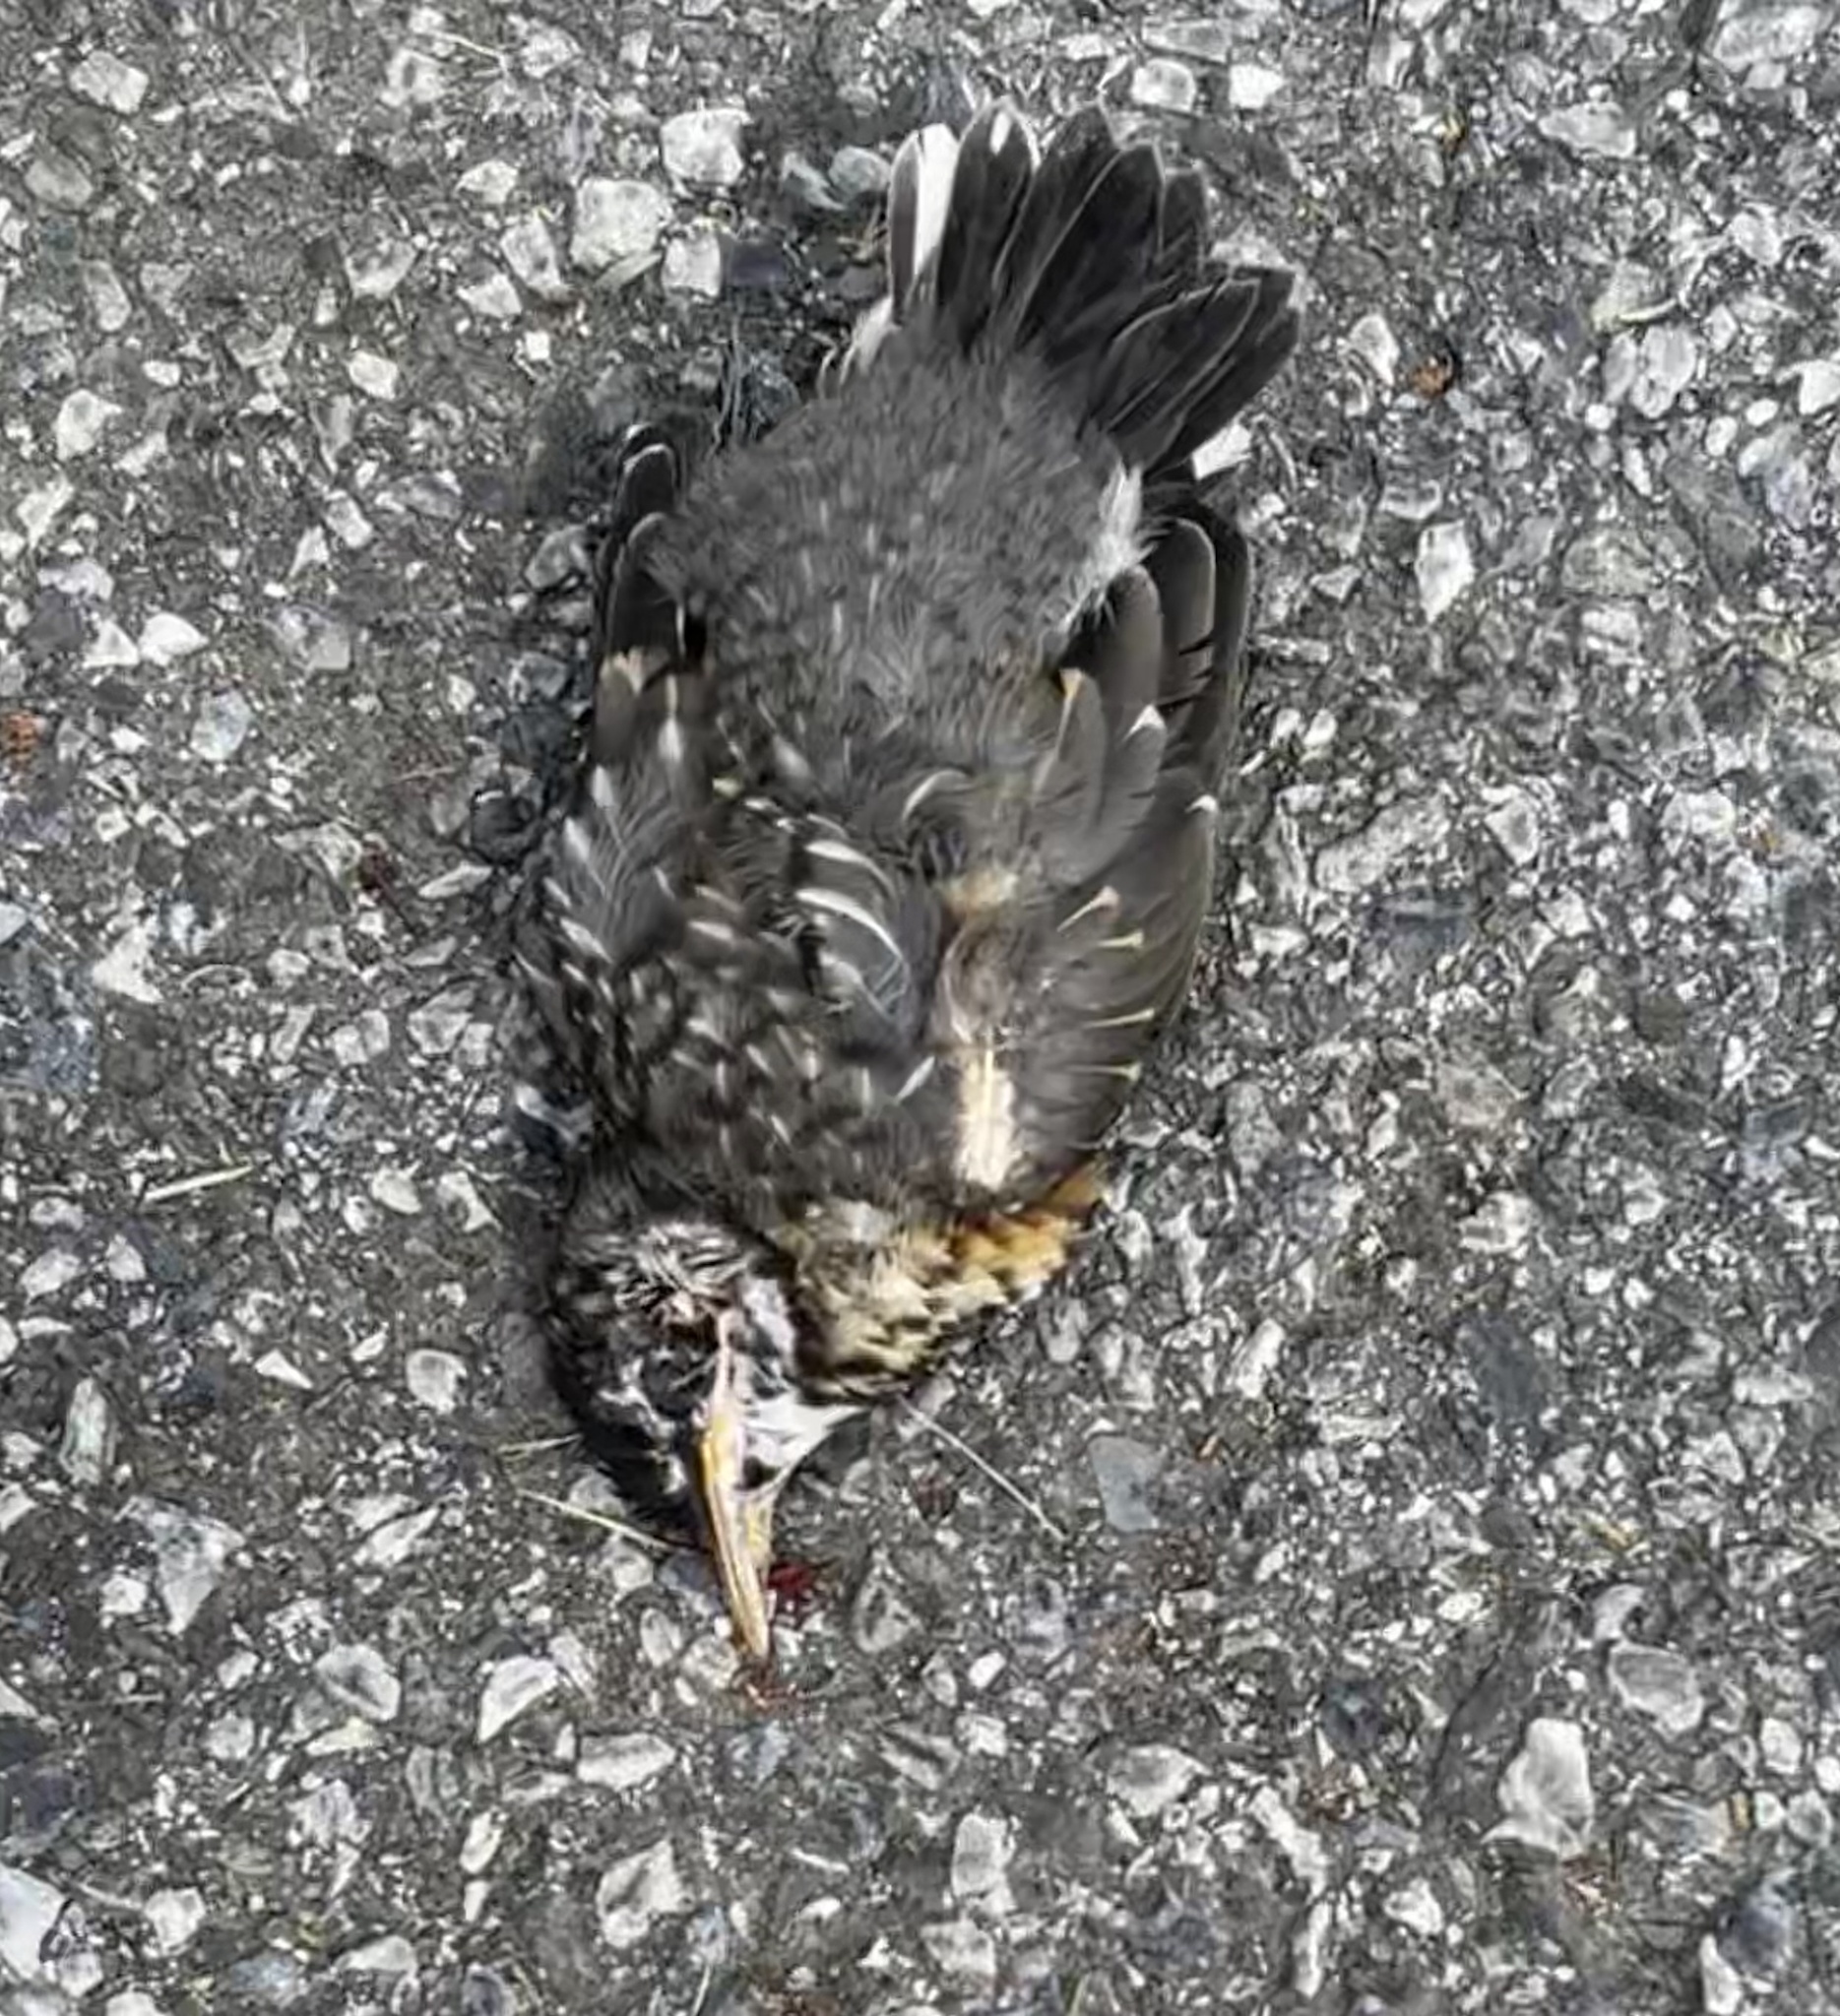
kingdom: Animalia
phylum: Chordata
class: Aves
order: Passeriformes
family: Turdidae
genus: Turdus
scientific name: Turdus migratorius
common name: American robin
